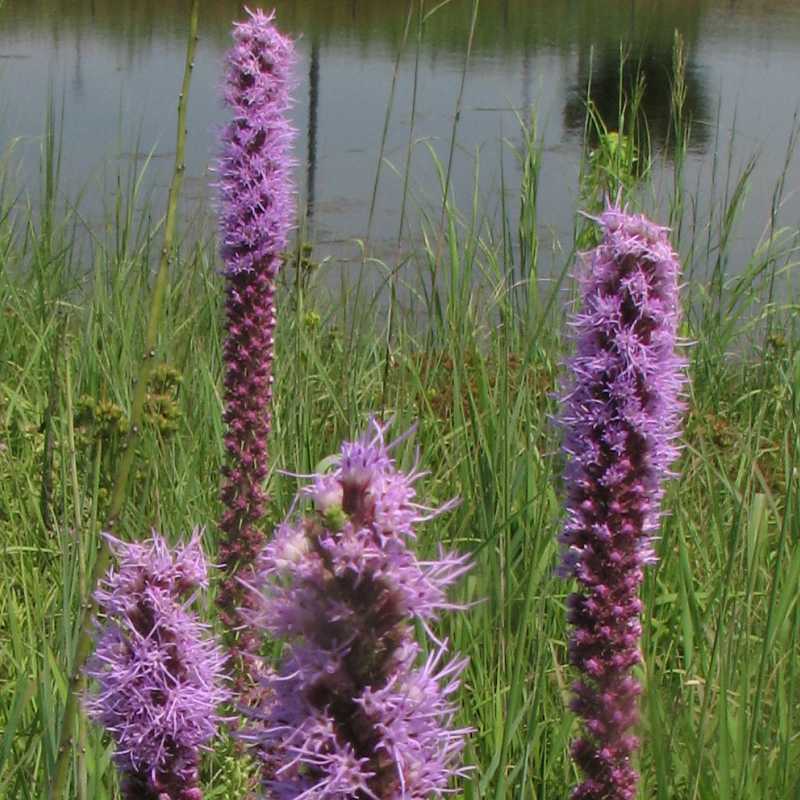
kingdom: Plantae
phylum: Tracheophyta
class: Magnoliopsida
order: Asterales
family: Asteraceae
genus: Liatris
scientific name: Liatris pycnostachya
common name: Cattail gayfeather
